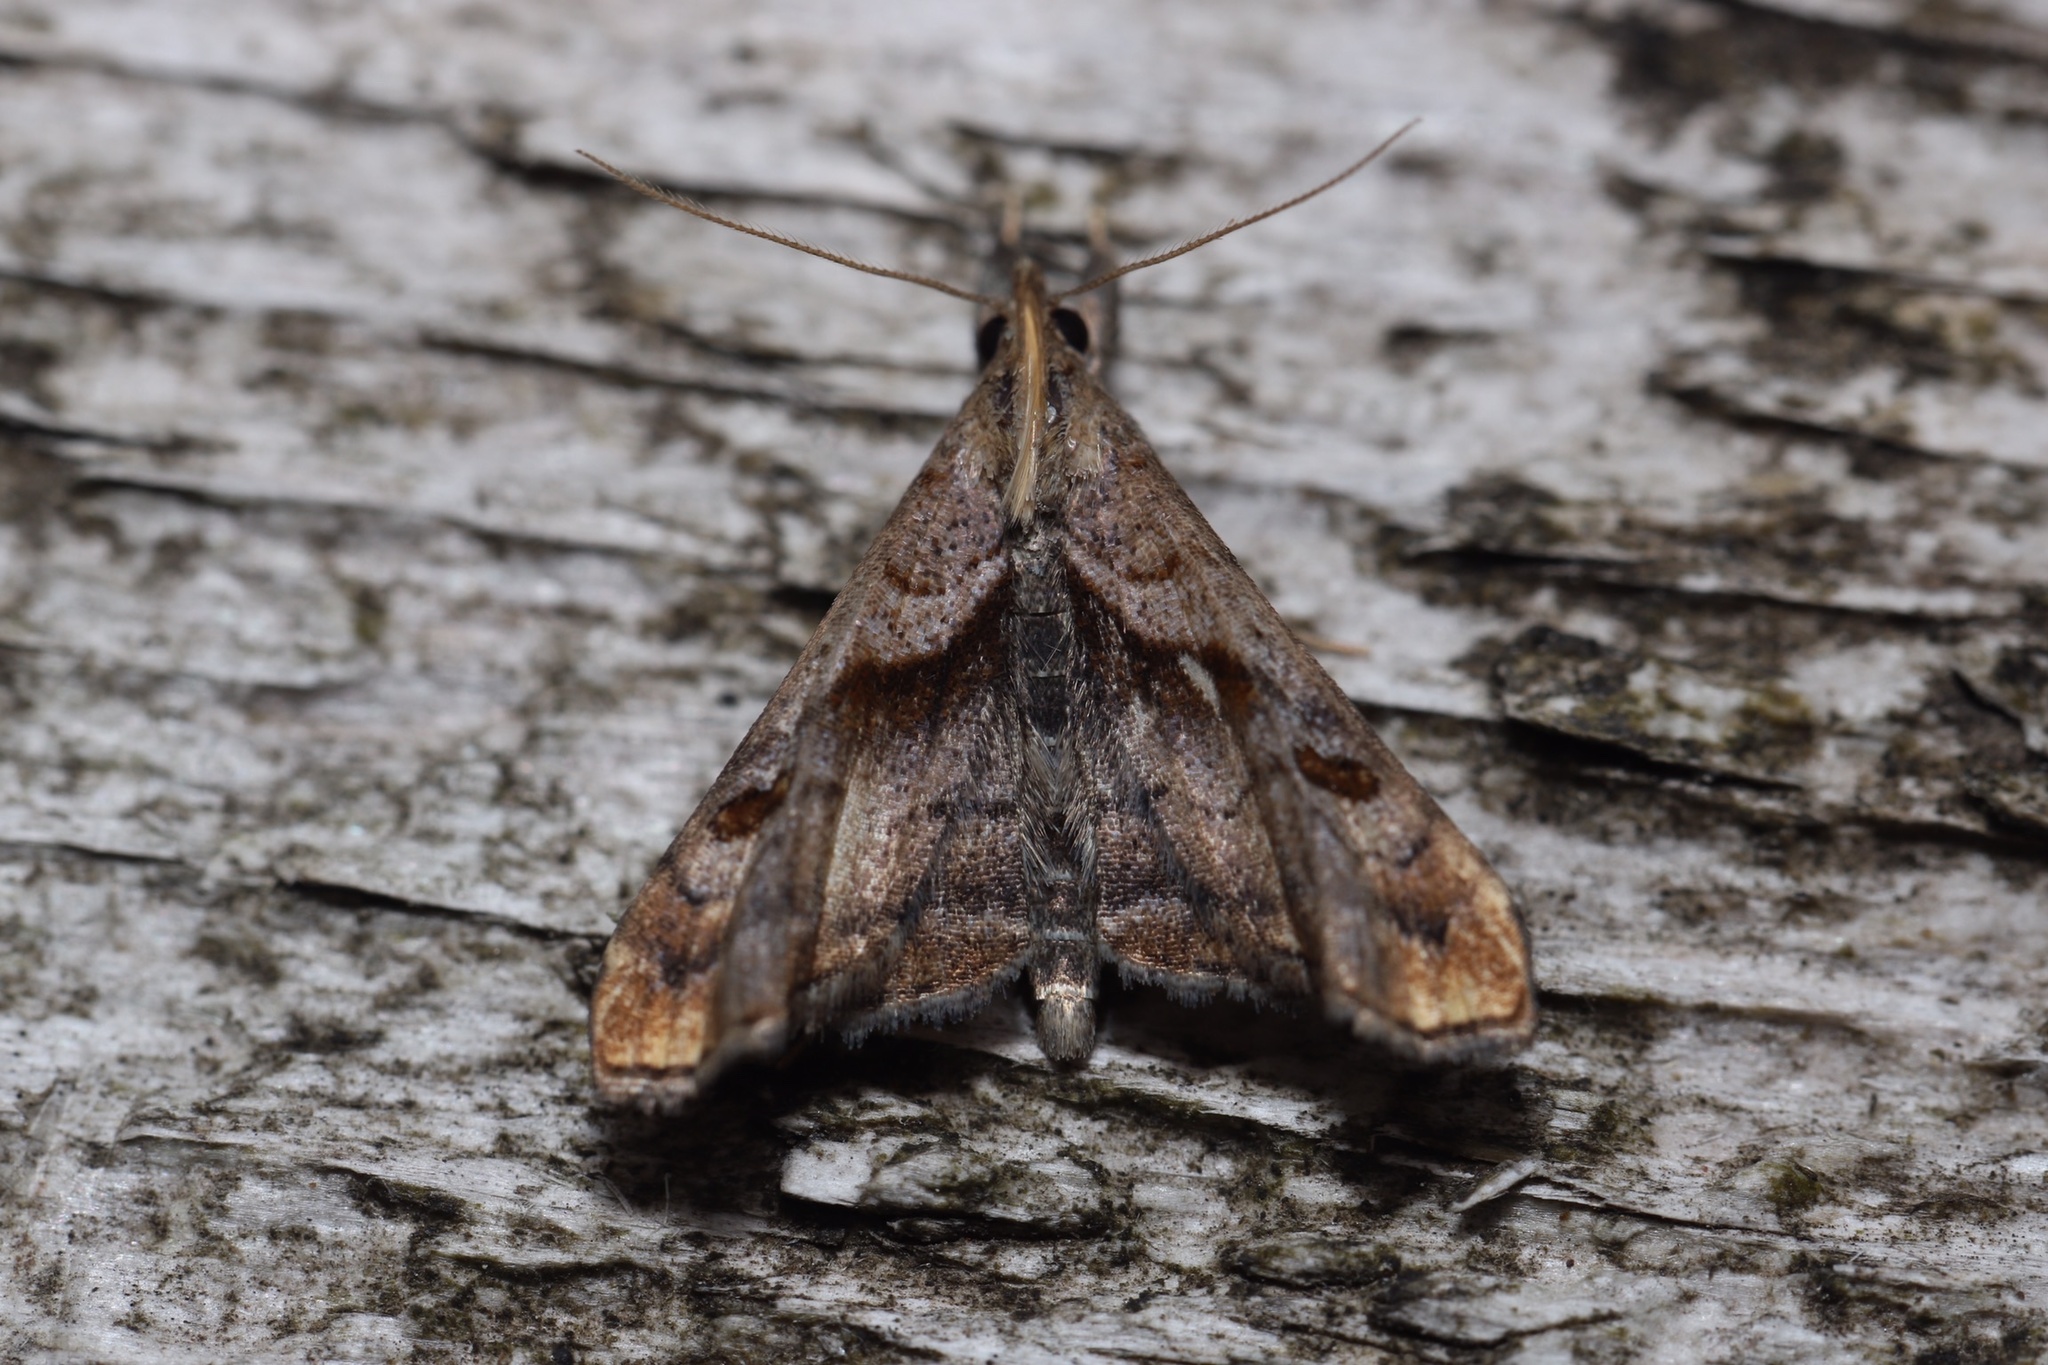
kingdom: Animalia
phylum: Arthropoda
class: Insecta
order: Lepidoptera
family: Erebidae
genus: Palthis
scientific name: Palthis angulalis
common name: Dark-spotted palthis moth
